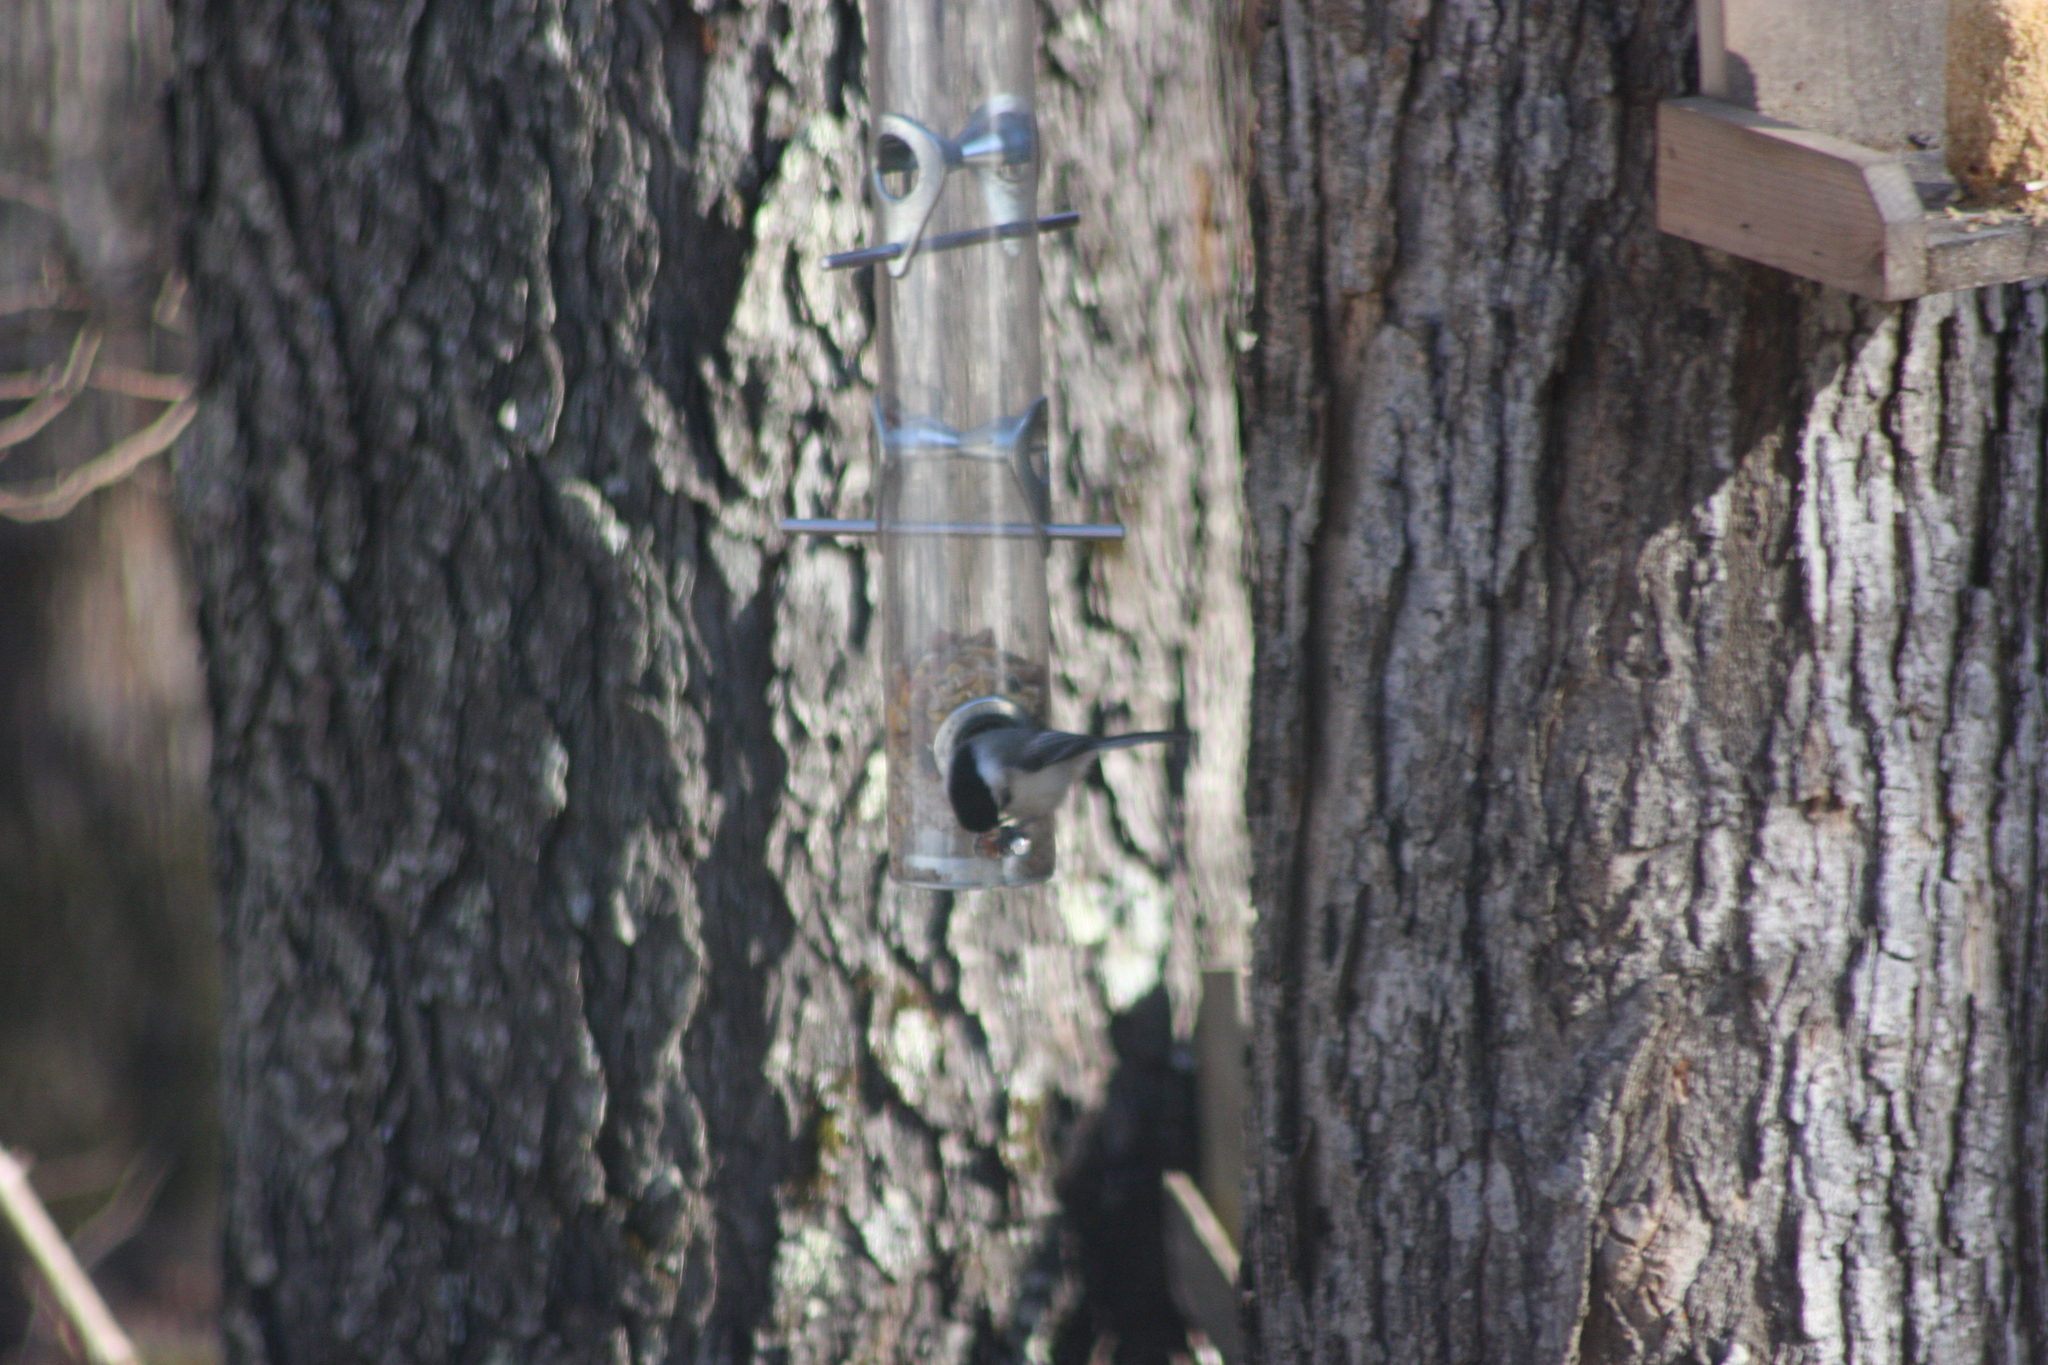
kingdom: Animalia
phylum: Chordata
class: Aves
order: Passeriformes
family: Paridae
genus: Poecile
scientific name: Poecile atricapillus
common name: Black-capped chickadee
